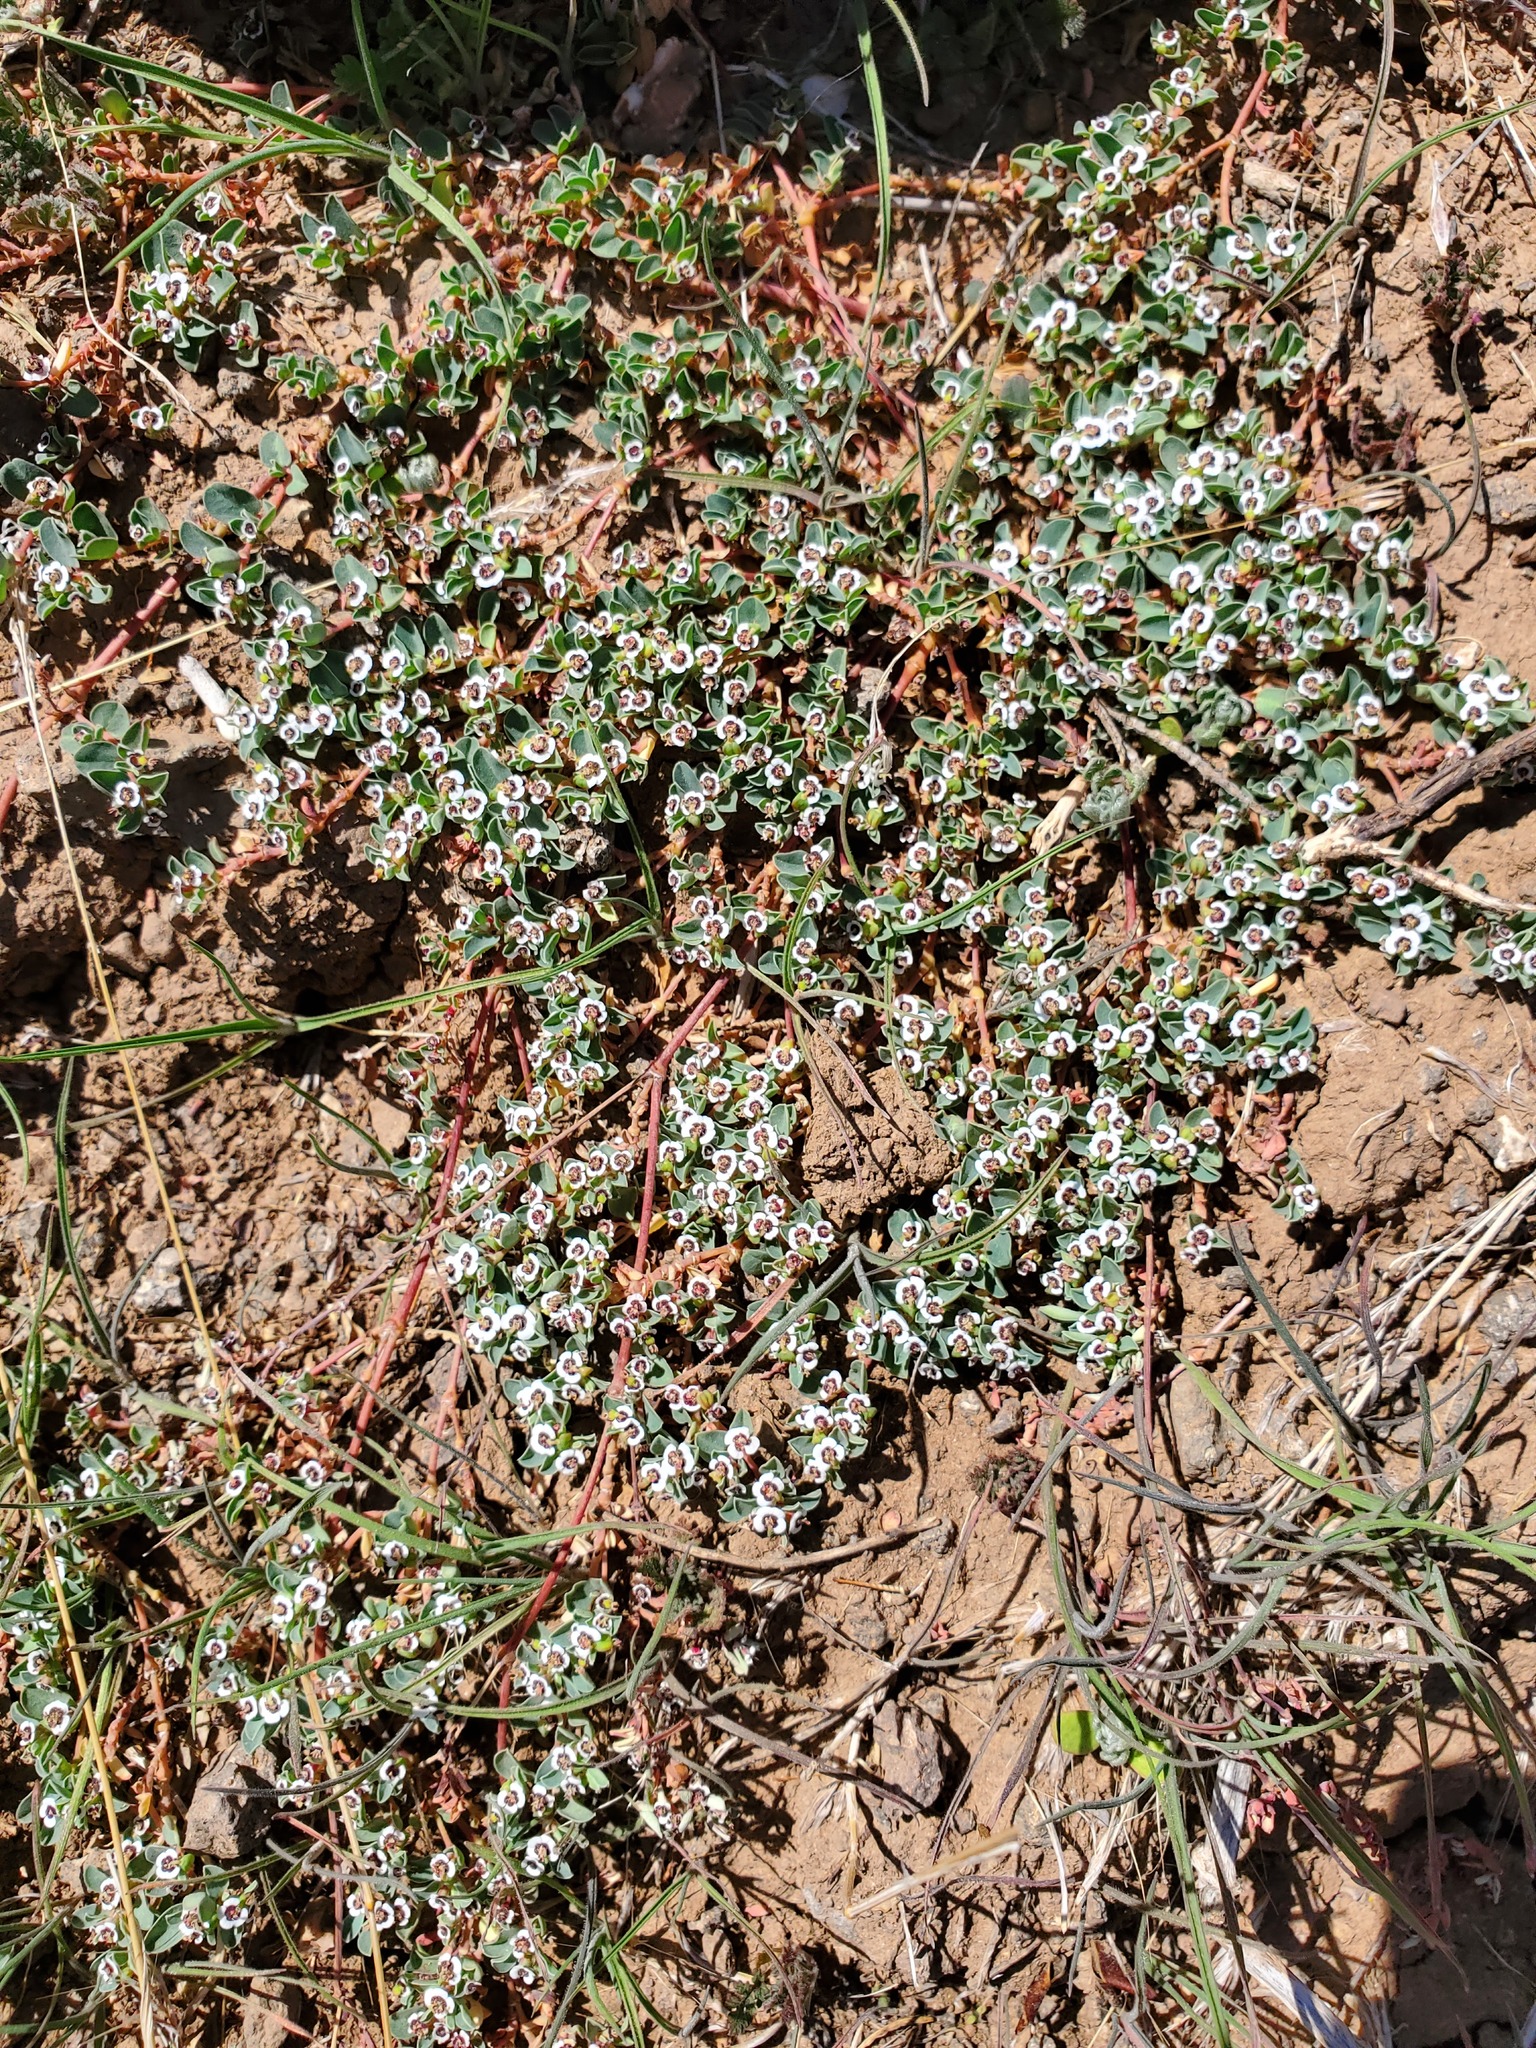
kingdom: Plantae
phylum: Tracheophyta
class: Magnoliopsida
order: Malpighiales
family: Euphorbiaceae
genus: Euphorbia
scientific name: Euphorbia albomarginata
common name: Whitemargin sandmat
